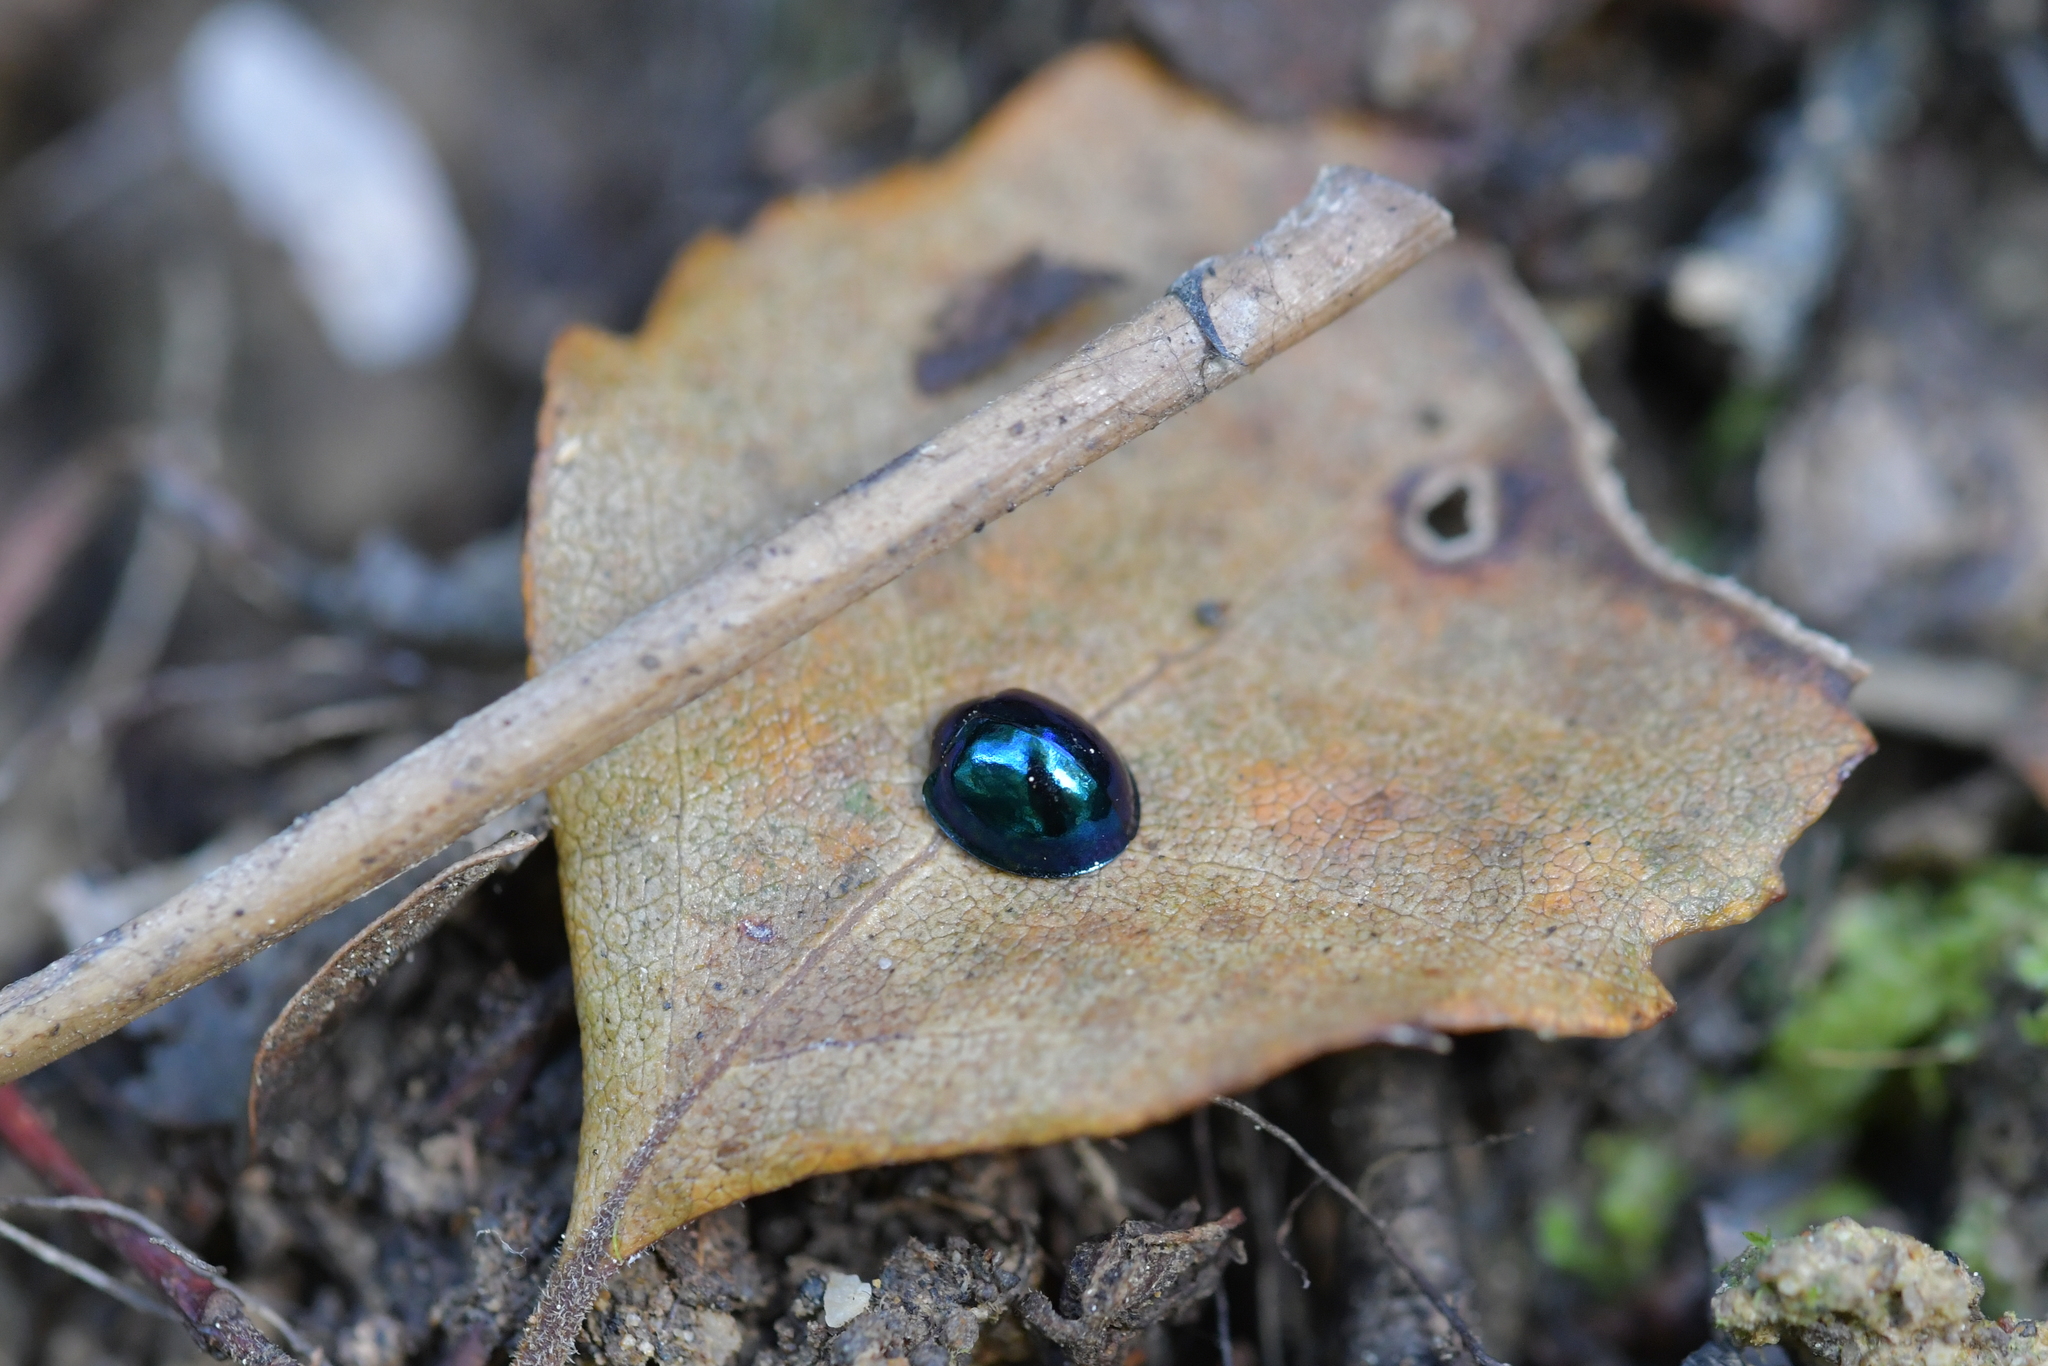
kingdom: Animalia
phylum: Arthropoda
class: Insecta
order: Coleoptera
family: Coccinellidae
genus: Halmus
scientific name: Halmus chalybeus
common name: Steel blue ladybird beetle
